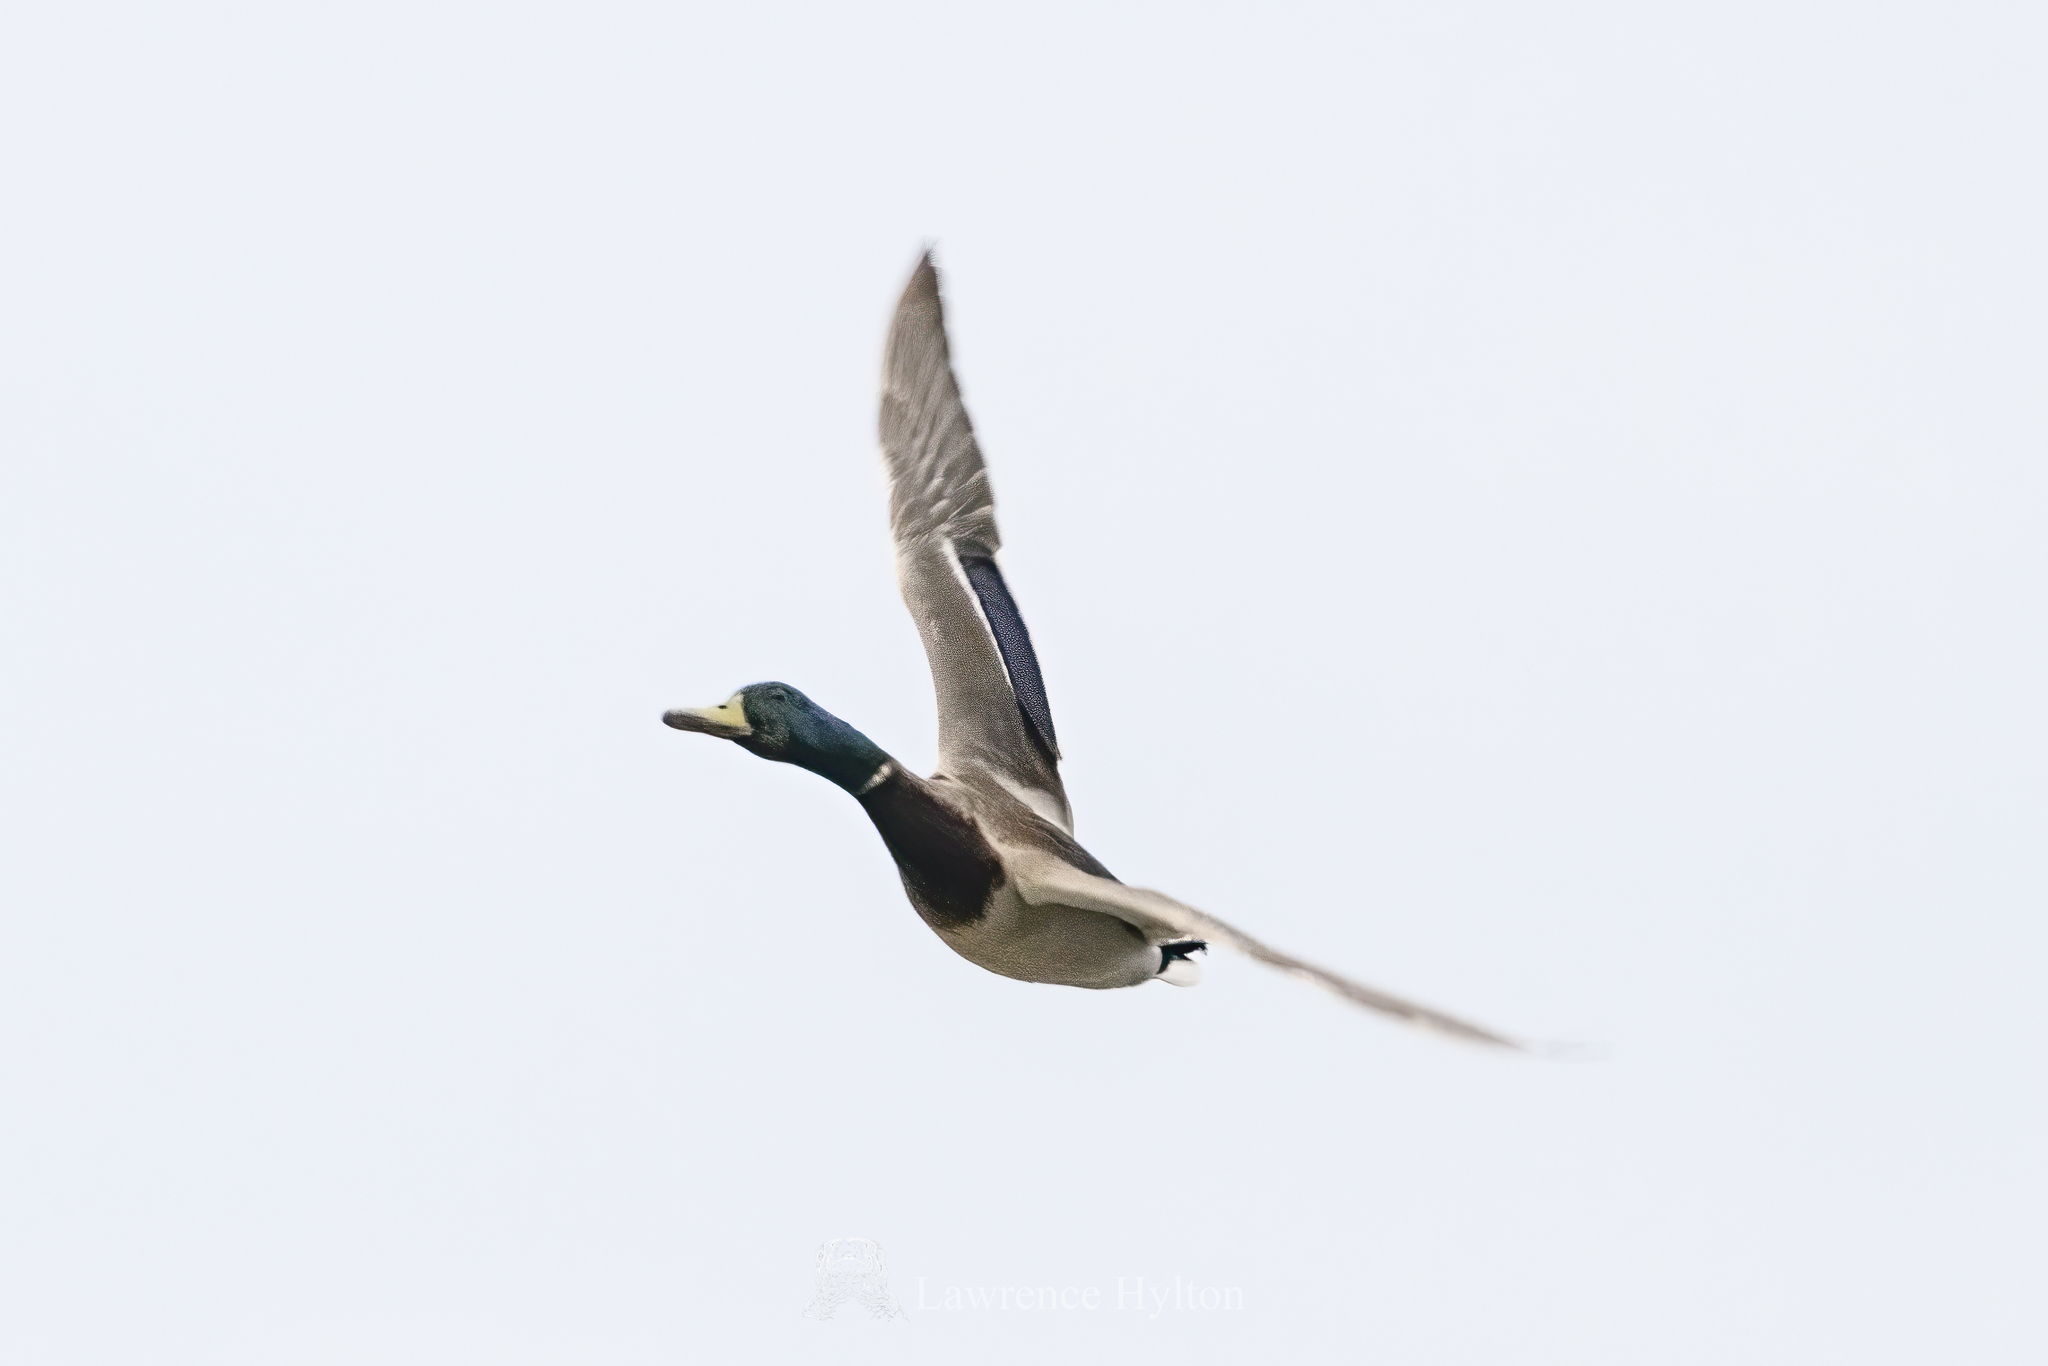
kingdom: Animalia
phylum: Chordata
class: Aves
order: Anseriformes
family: Anatidae
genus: Anas
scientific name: Anas platyrhynchos
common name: Mallard
